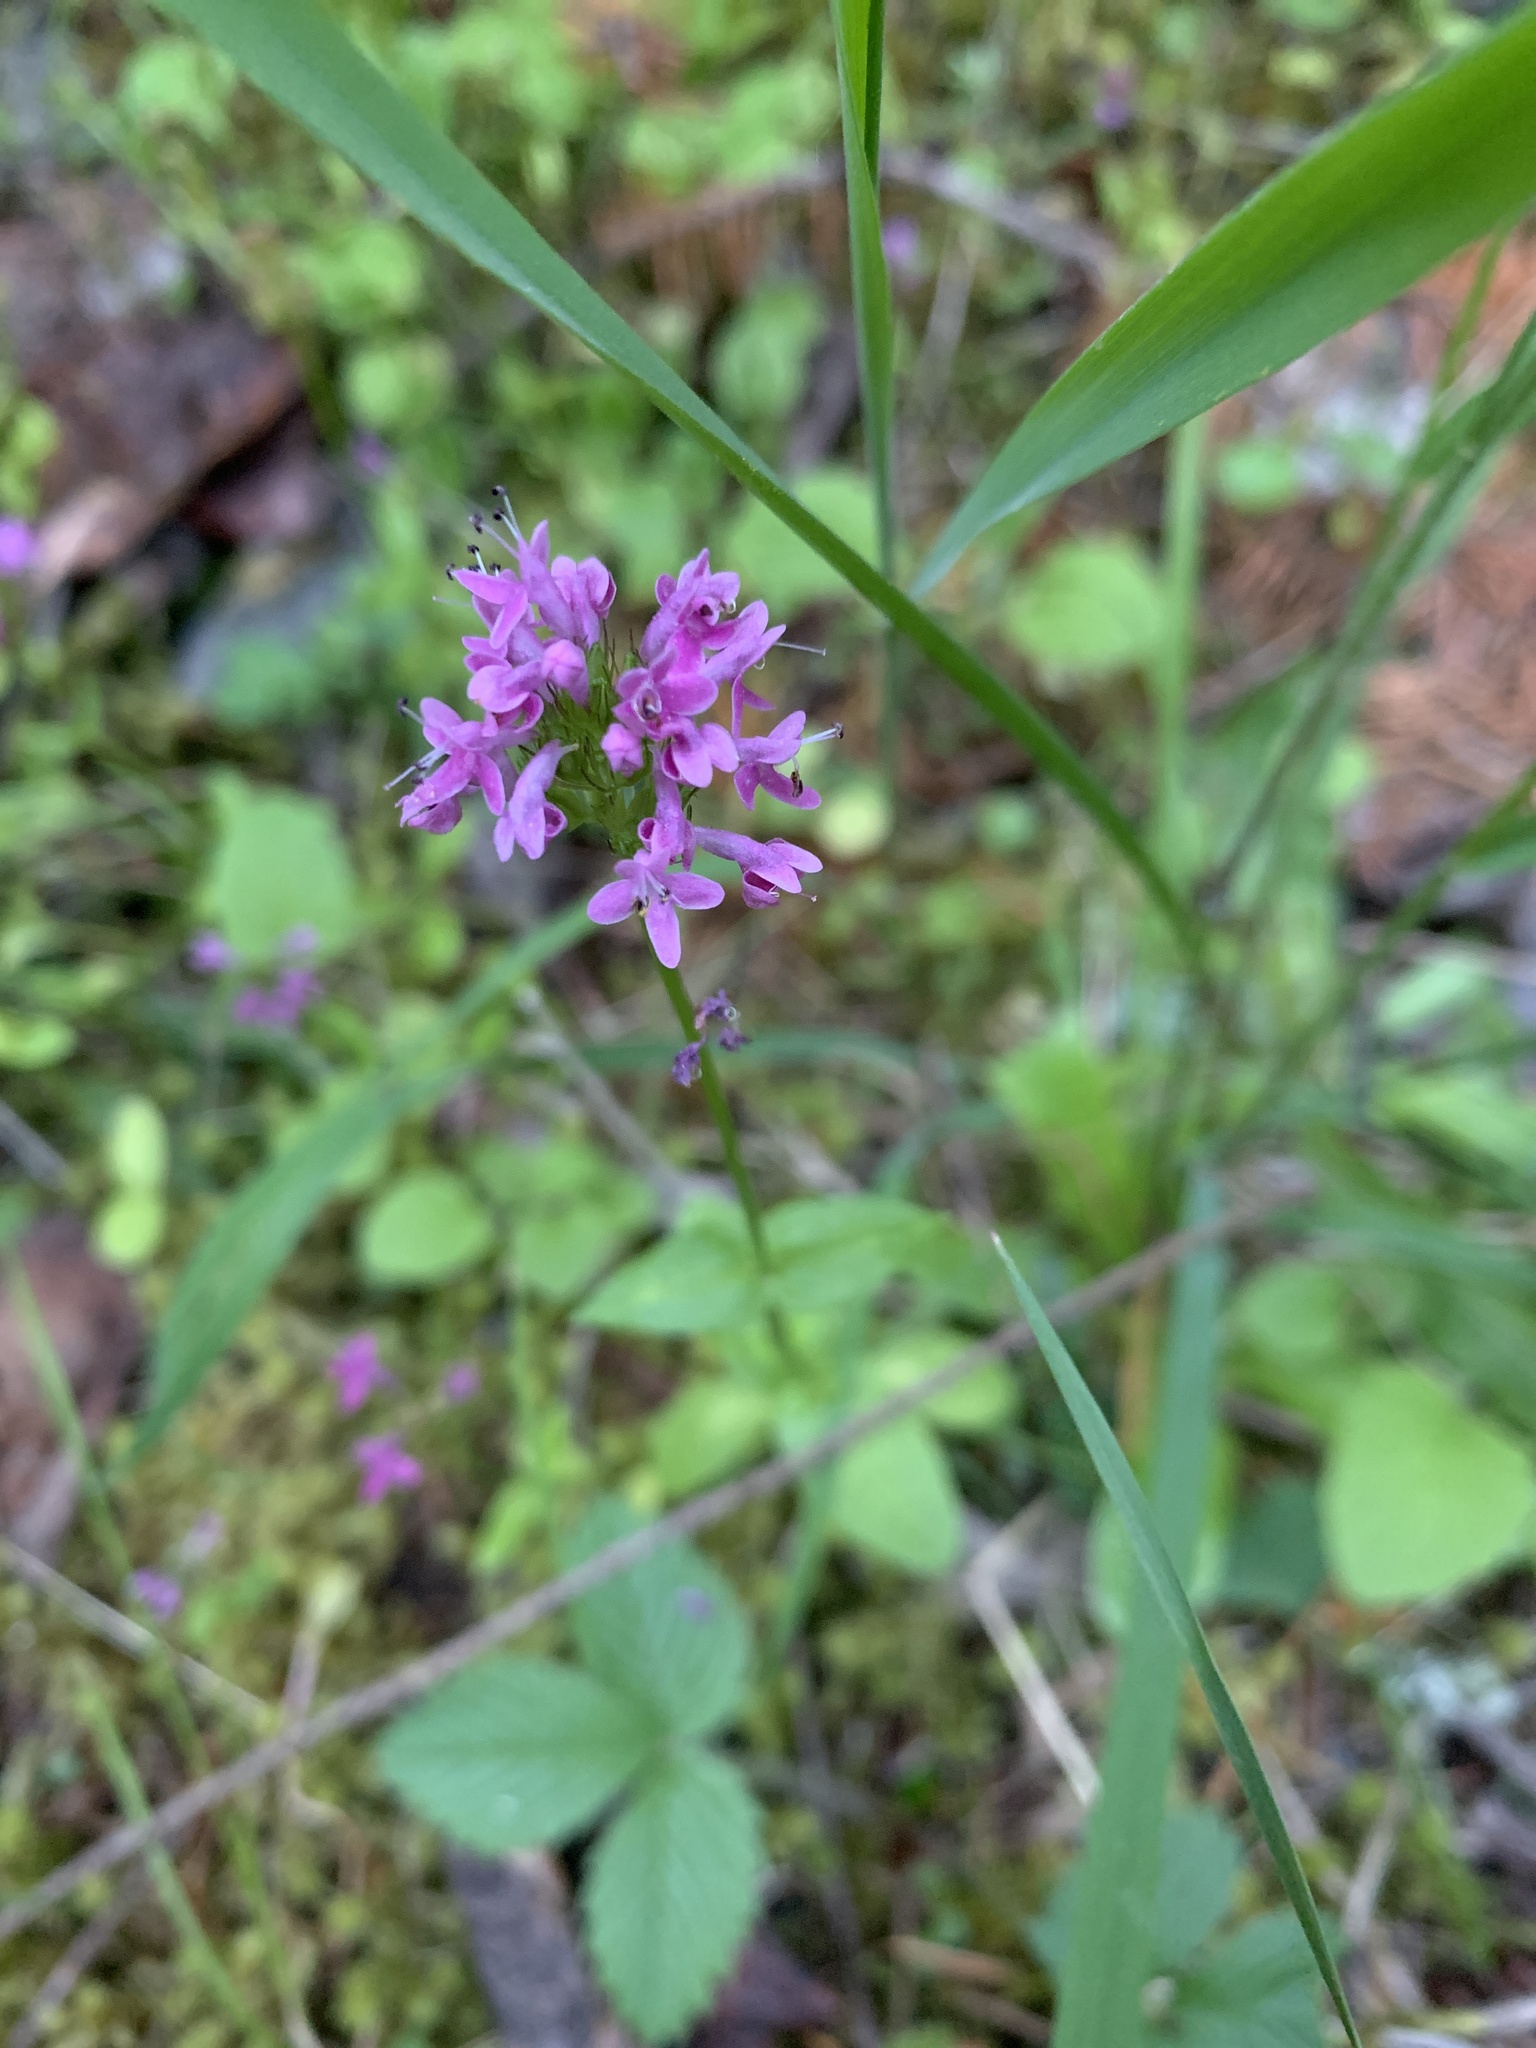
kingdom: Plantae
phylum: Tracheophyta
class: Magnoliopsida
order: Dipsacales
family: Caprifoliaceae
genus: Plectritis
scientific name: Plectritis congesta
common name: Pink plectritis
